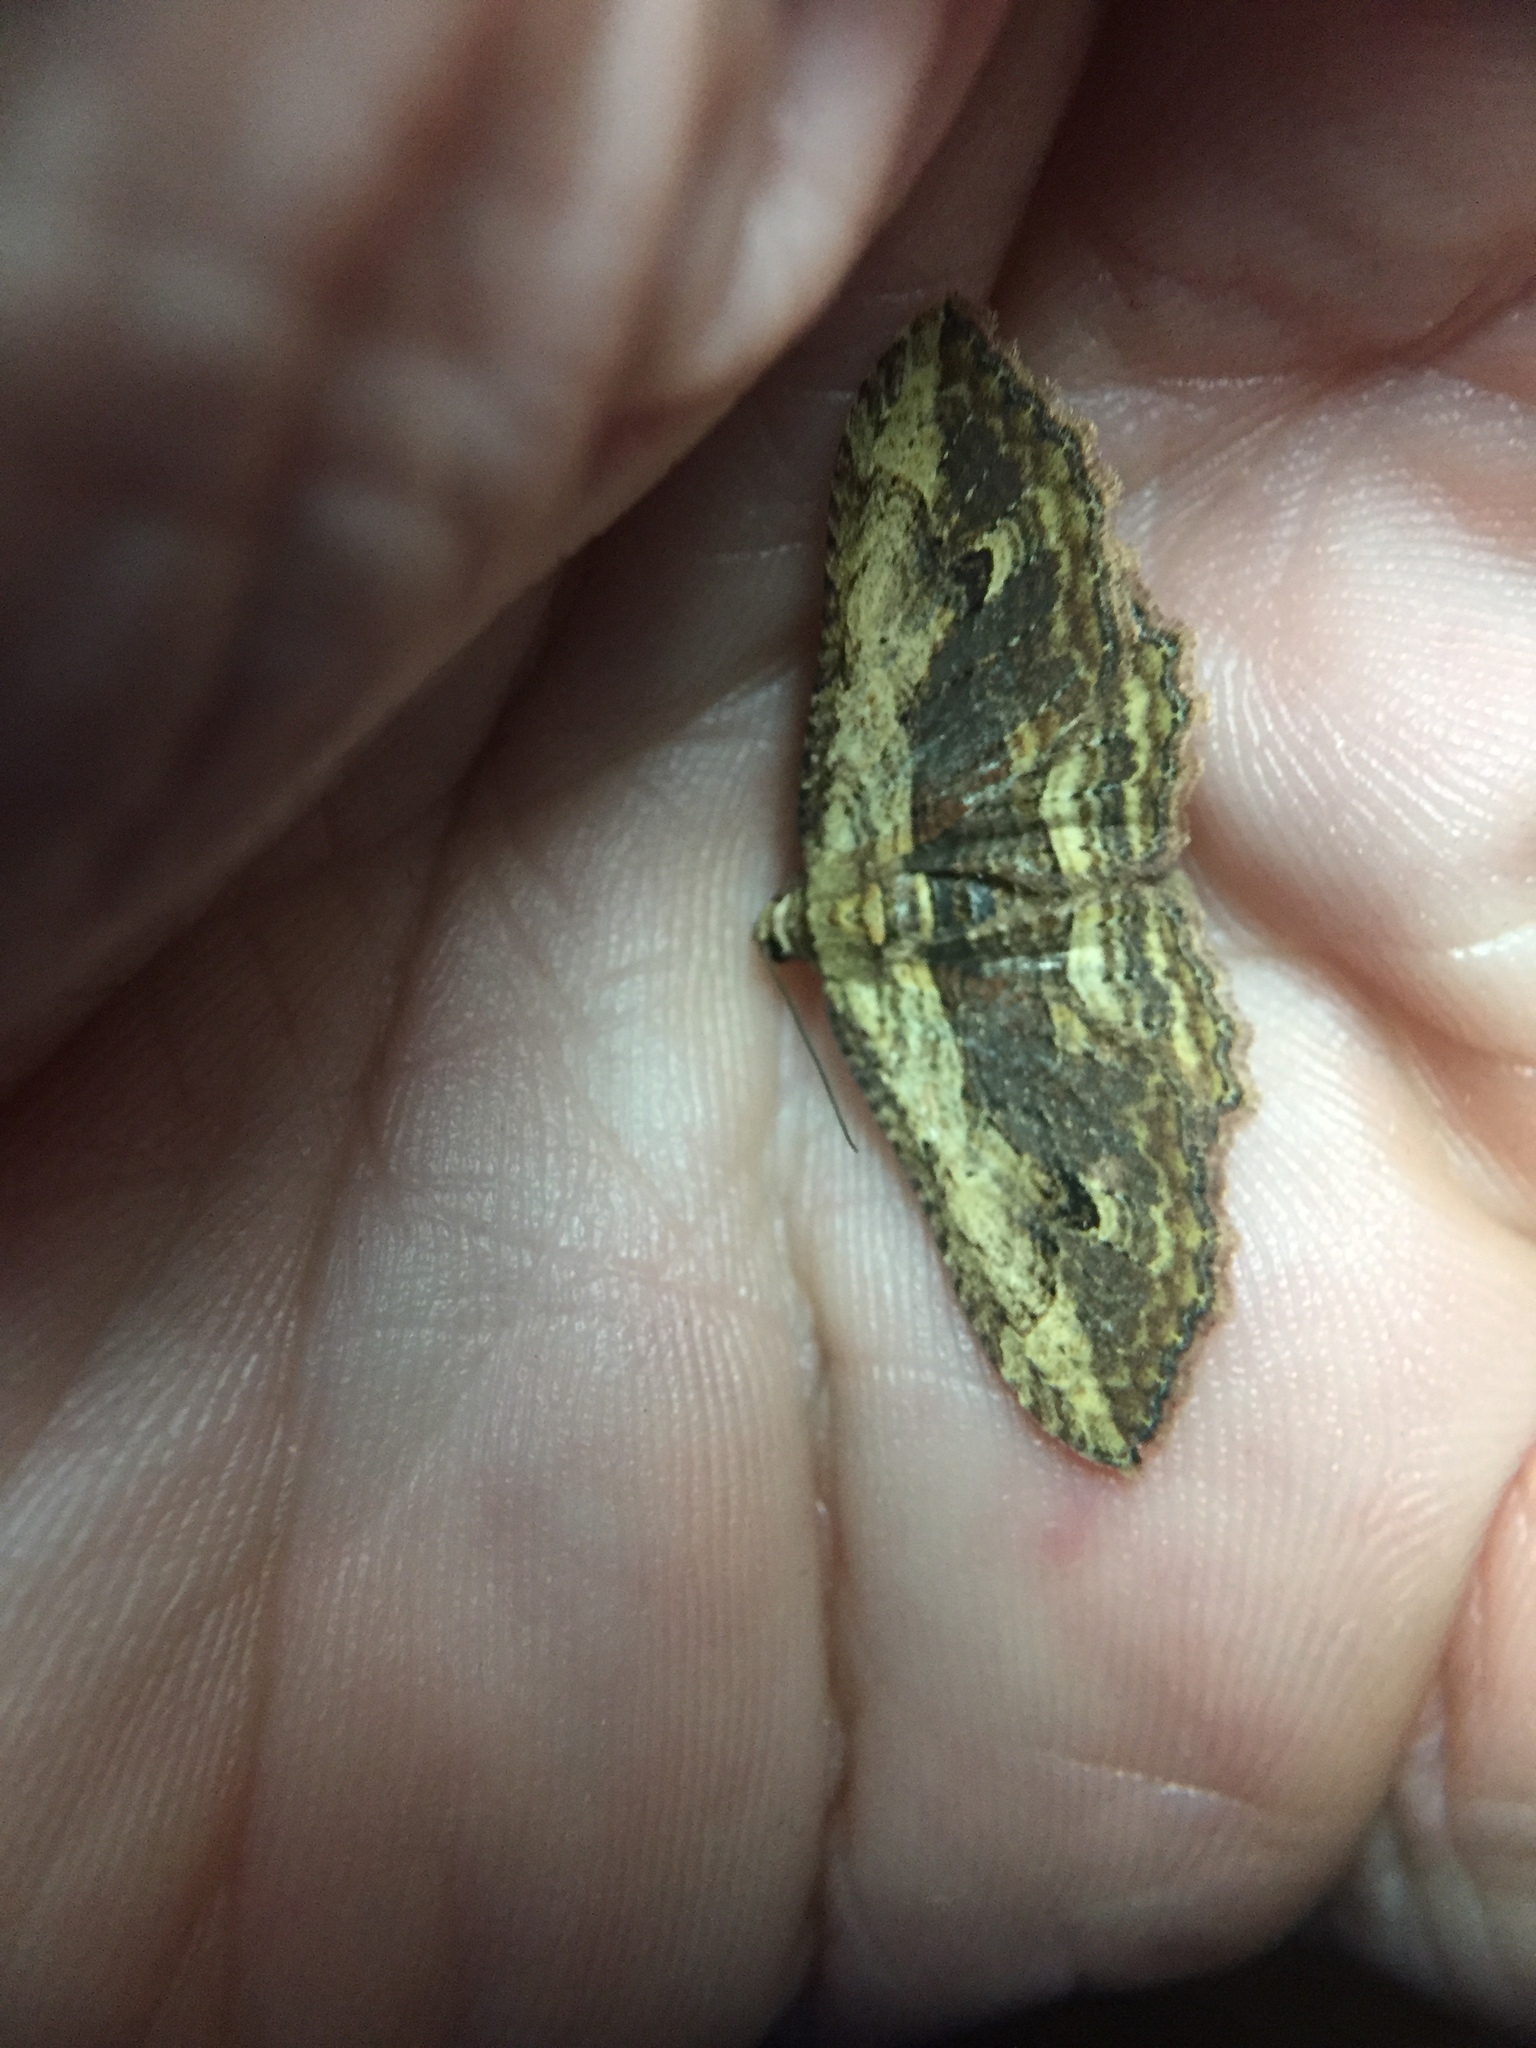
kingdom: Animalia
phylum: Arthropoda
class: Insecta
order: Lepidoptera
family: Geometridae
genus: Austrocidaria
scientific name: Austrocidaria bipartita
